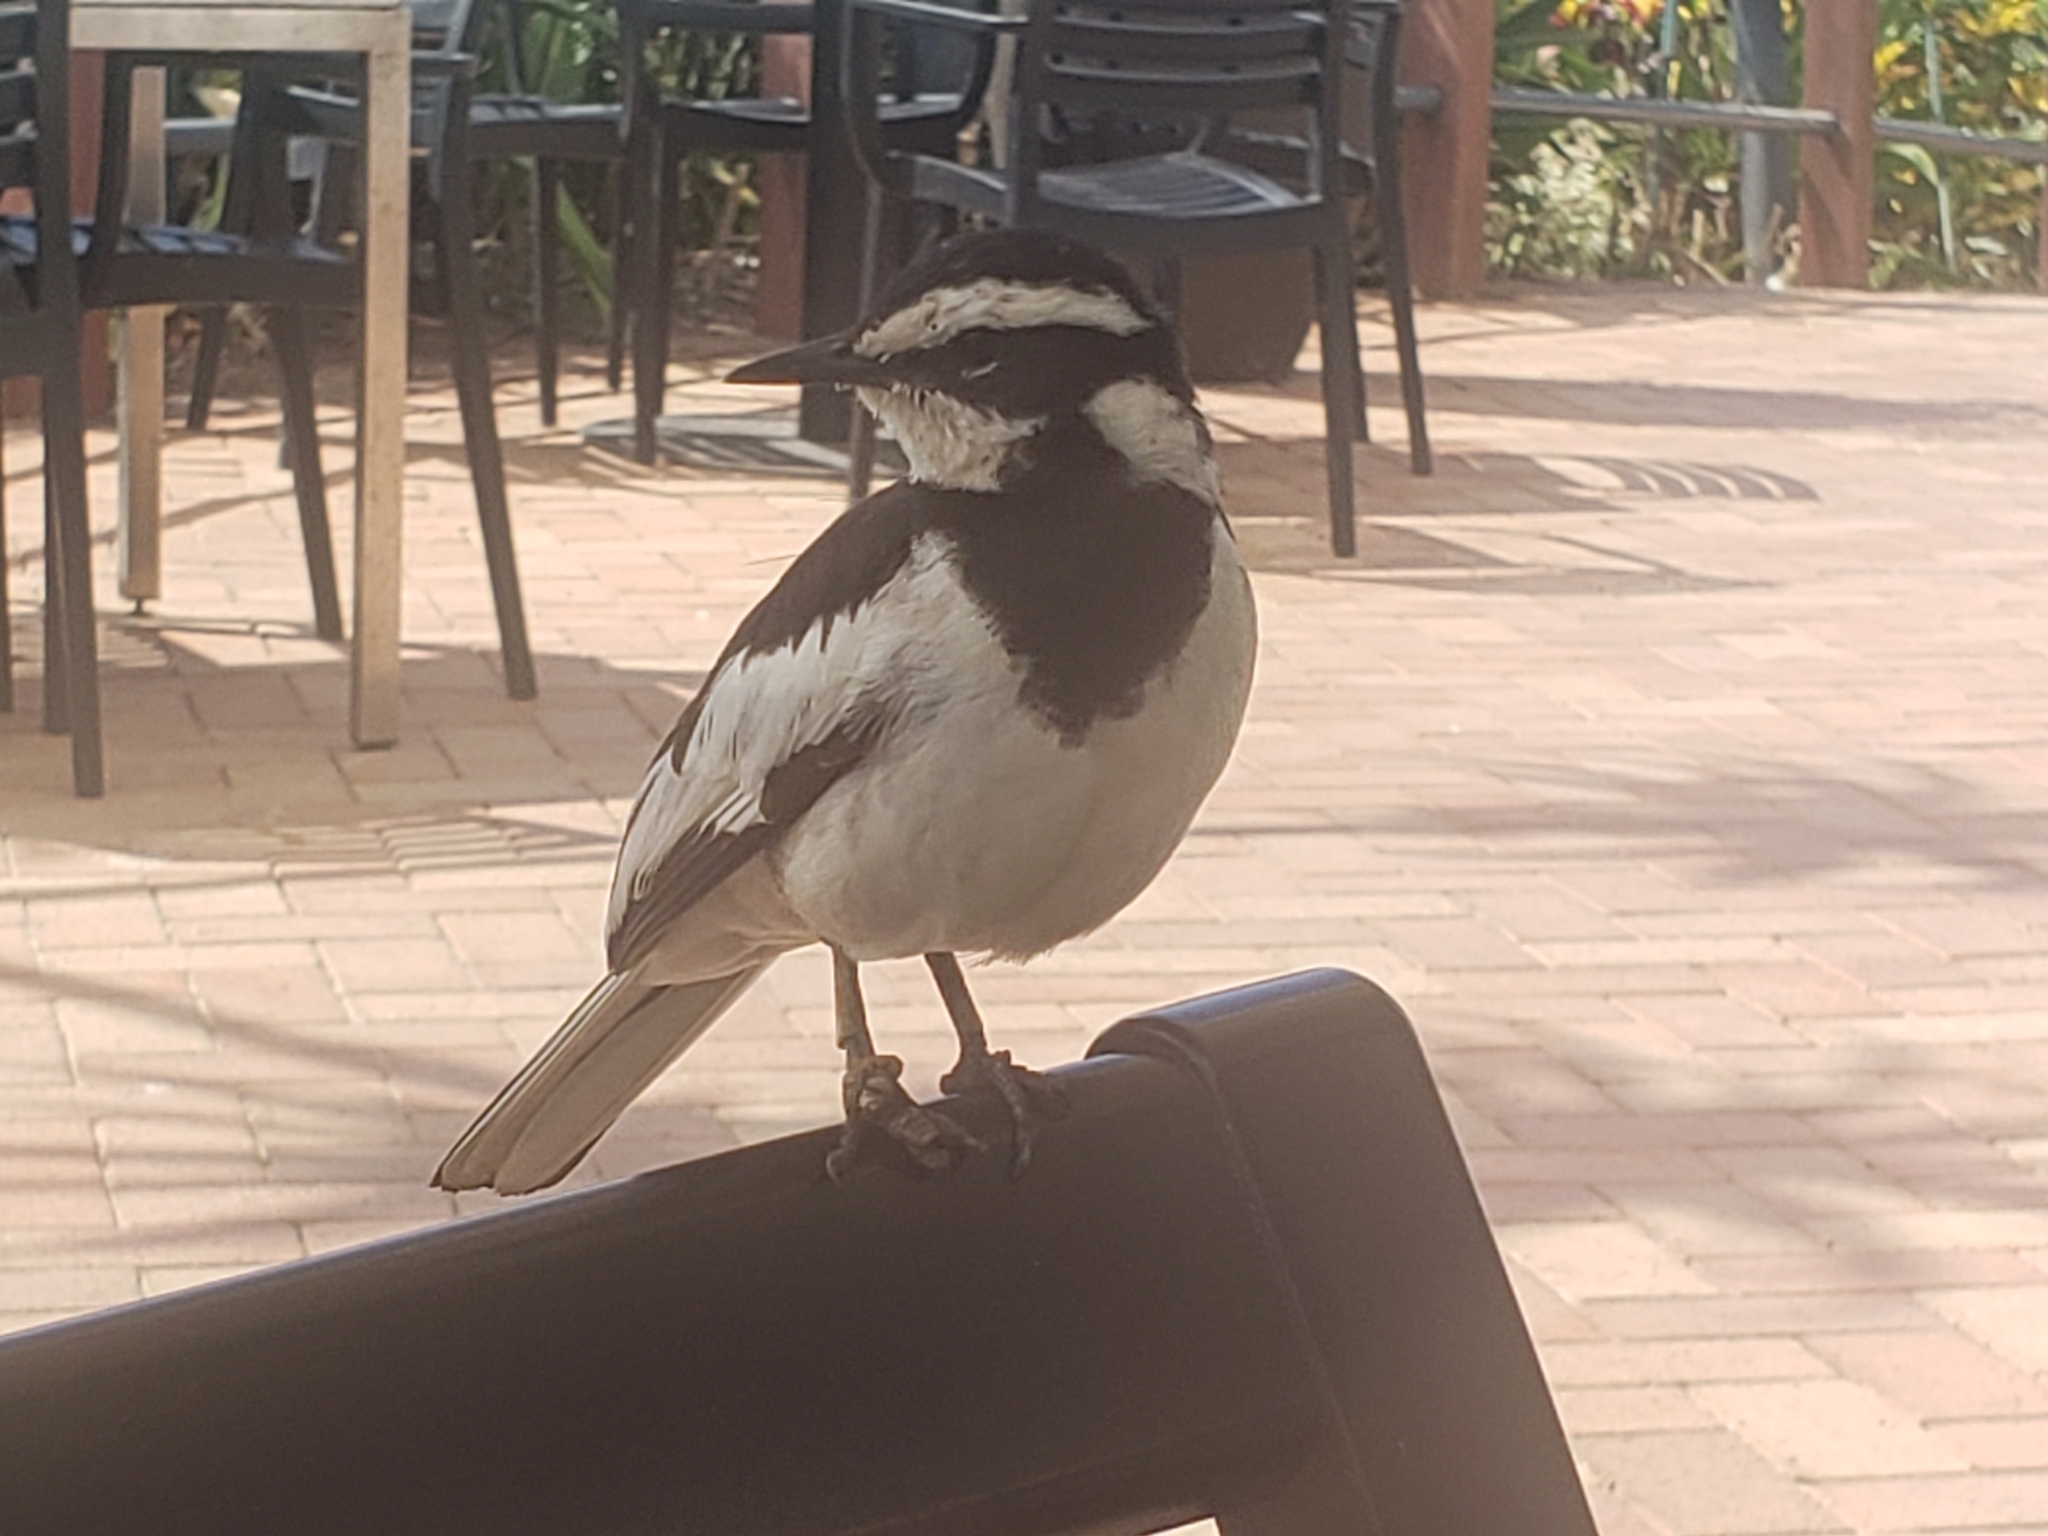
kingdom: Animalia
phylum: Chordata
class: Aves
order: Passeriformes
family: Motacillidae
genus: Motacilla
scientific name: Motacilla aguimp
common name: African pied wagtail
